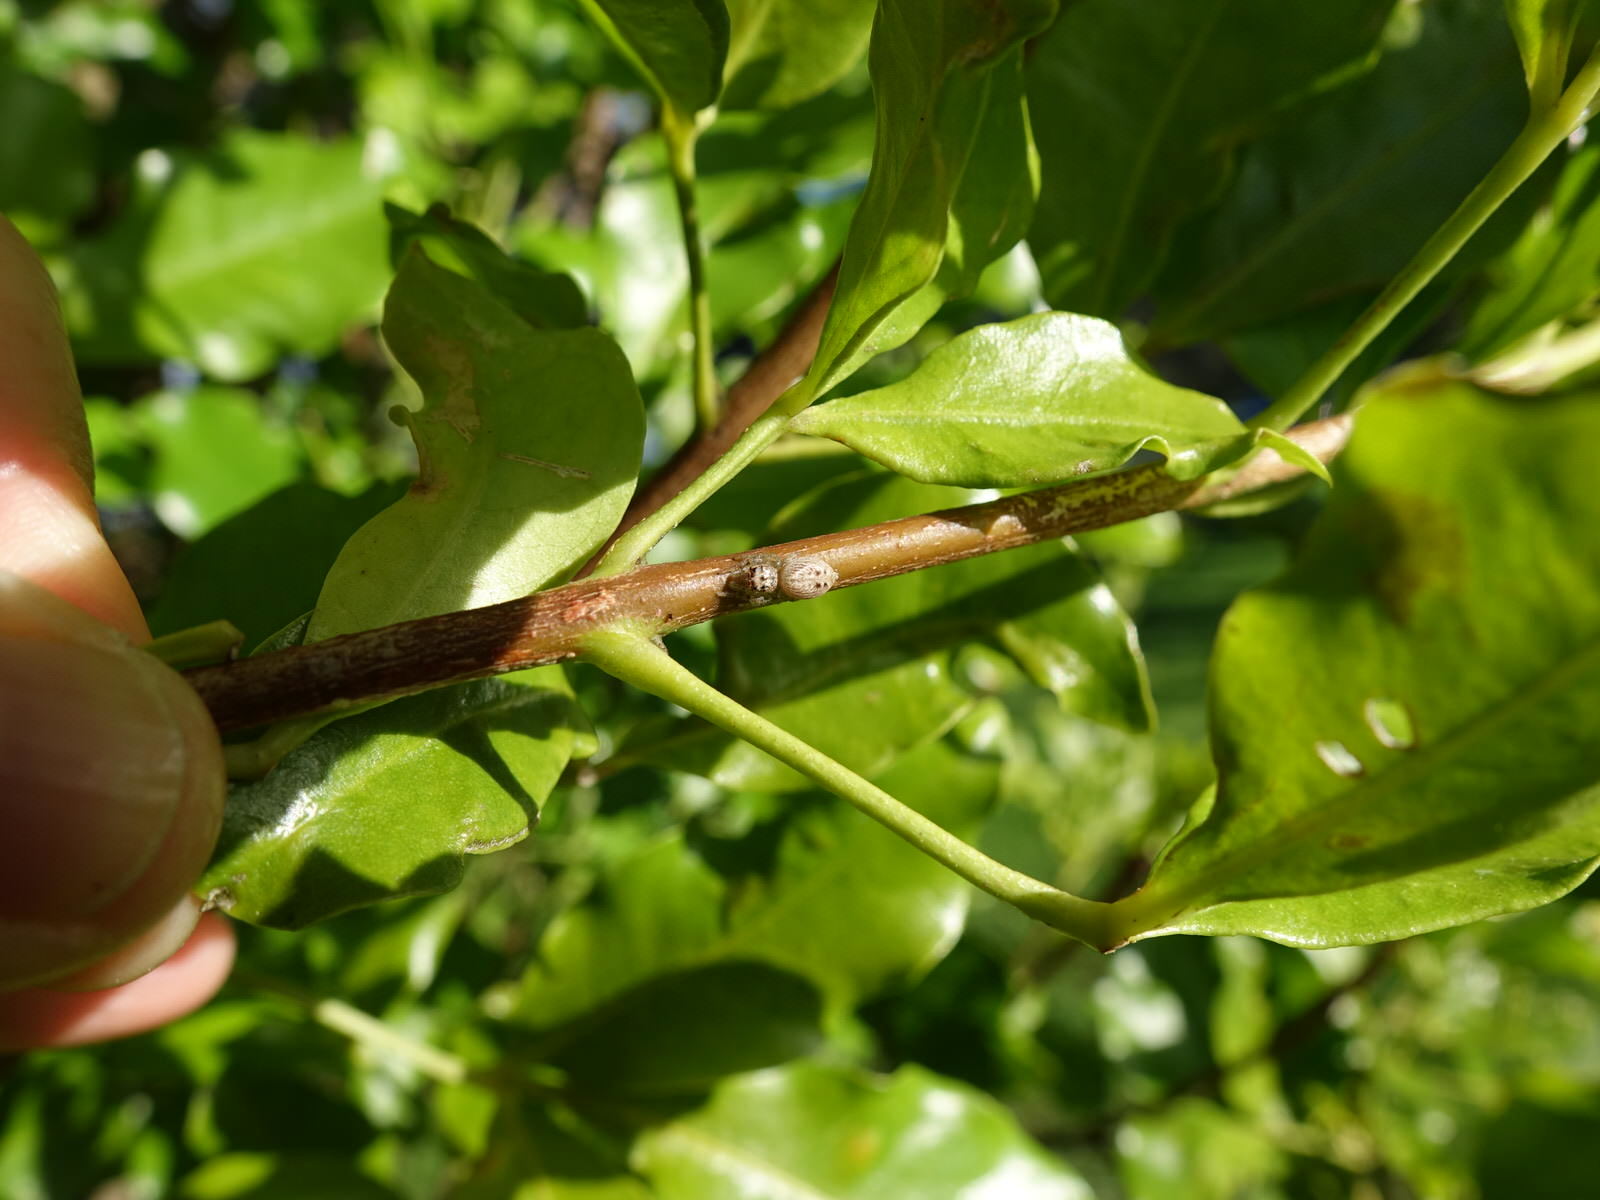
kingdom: Animalia
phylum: Arthropoda
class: Arachnida
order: Araneae
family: Salticidae
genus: Opisthoncus
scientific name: Opisthoncus polyphemus
